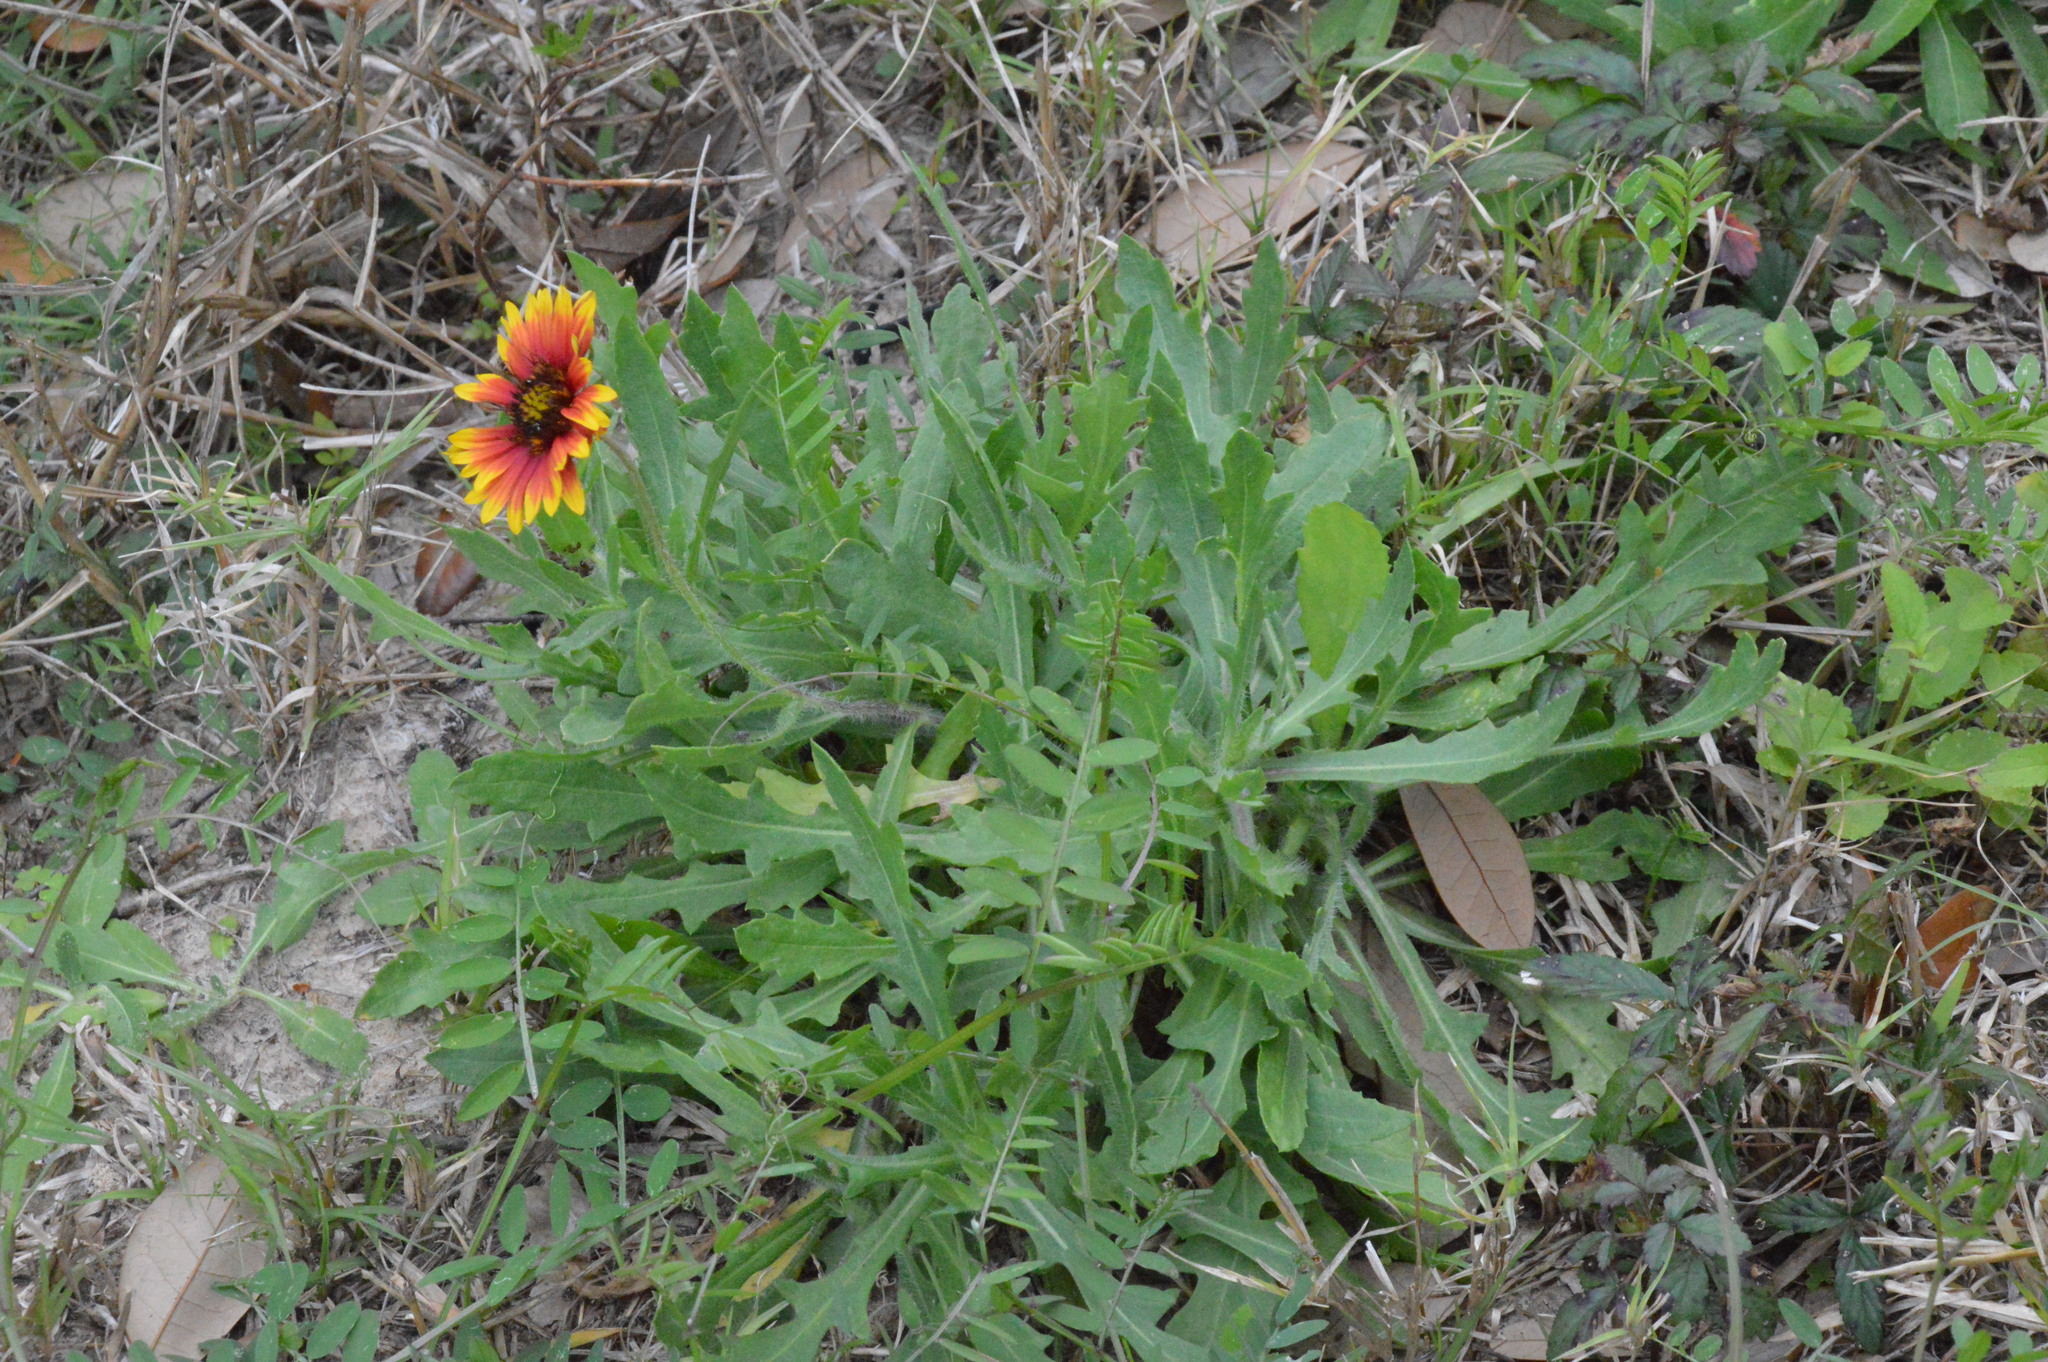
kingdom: Plantae
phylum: Tracheophyta
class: Magnoliopsida
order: Asterales
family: Asteraceae
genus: Gaillardia
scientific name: Gaillardia pulchella
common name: Firewheel
